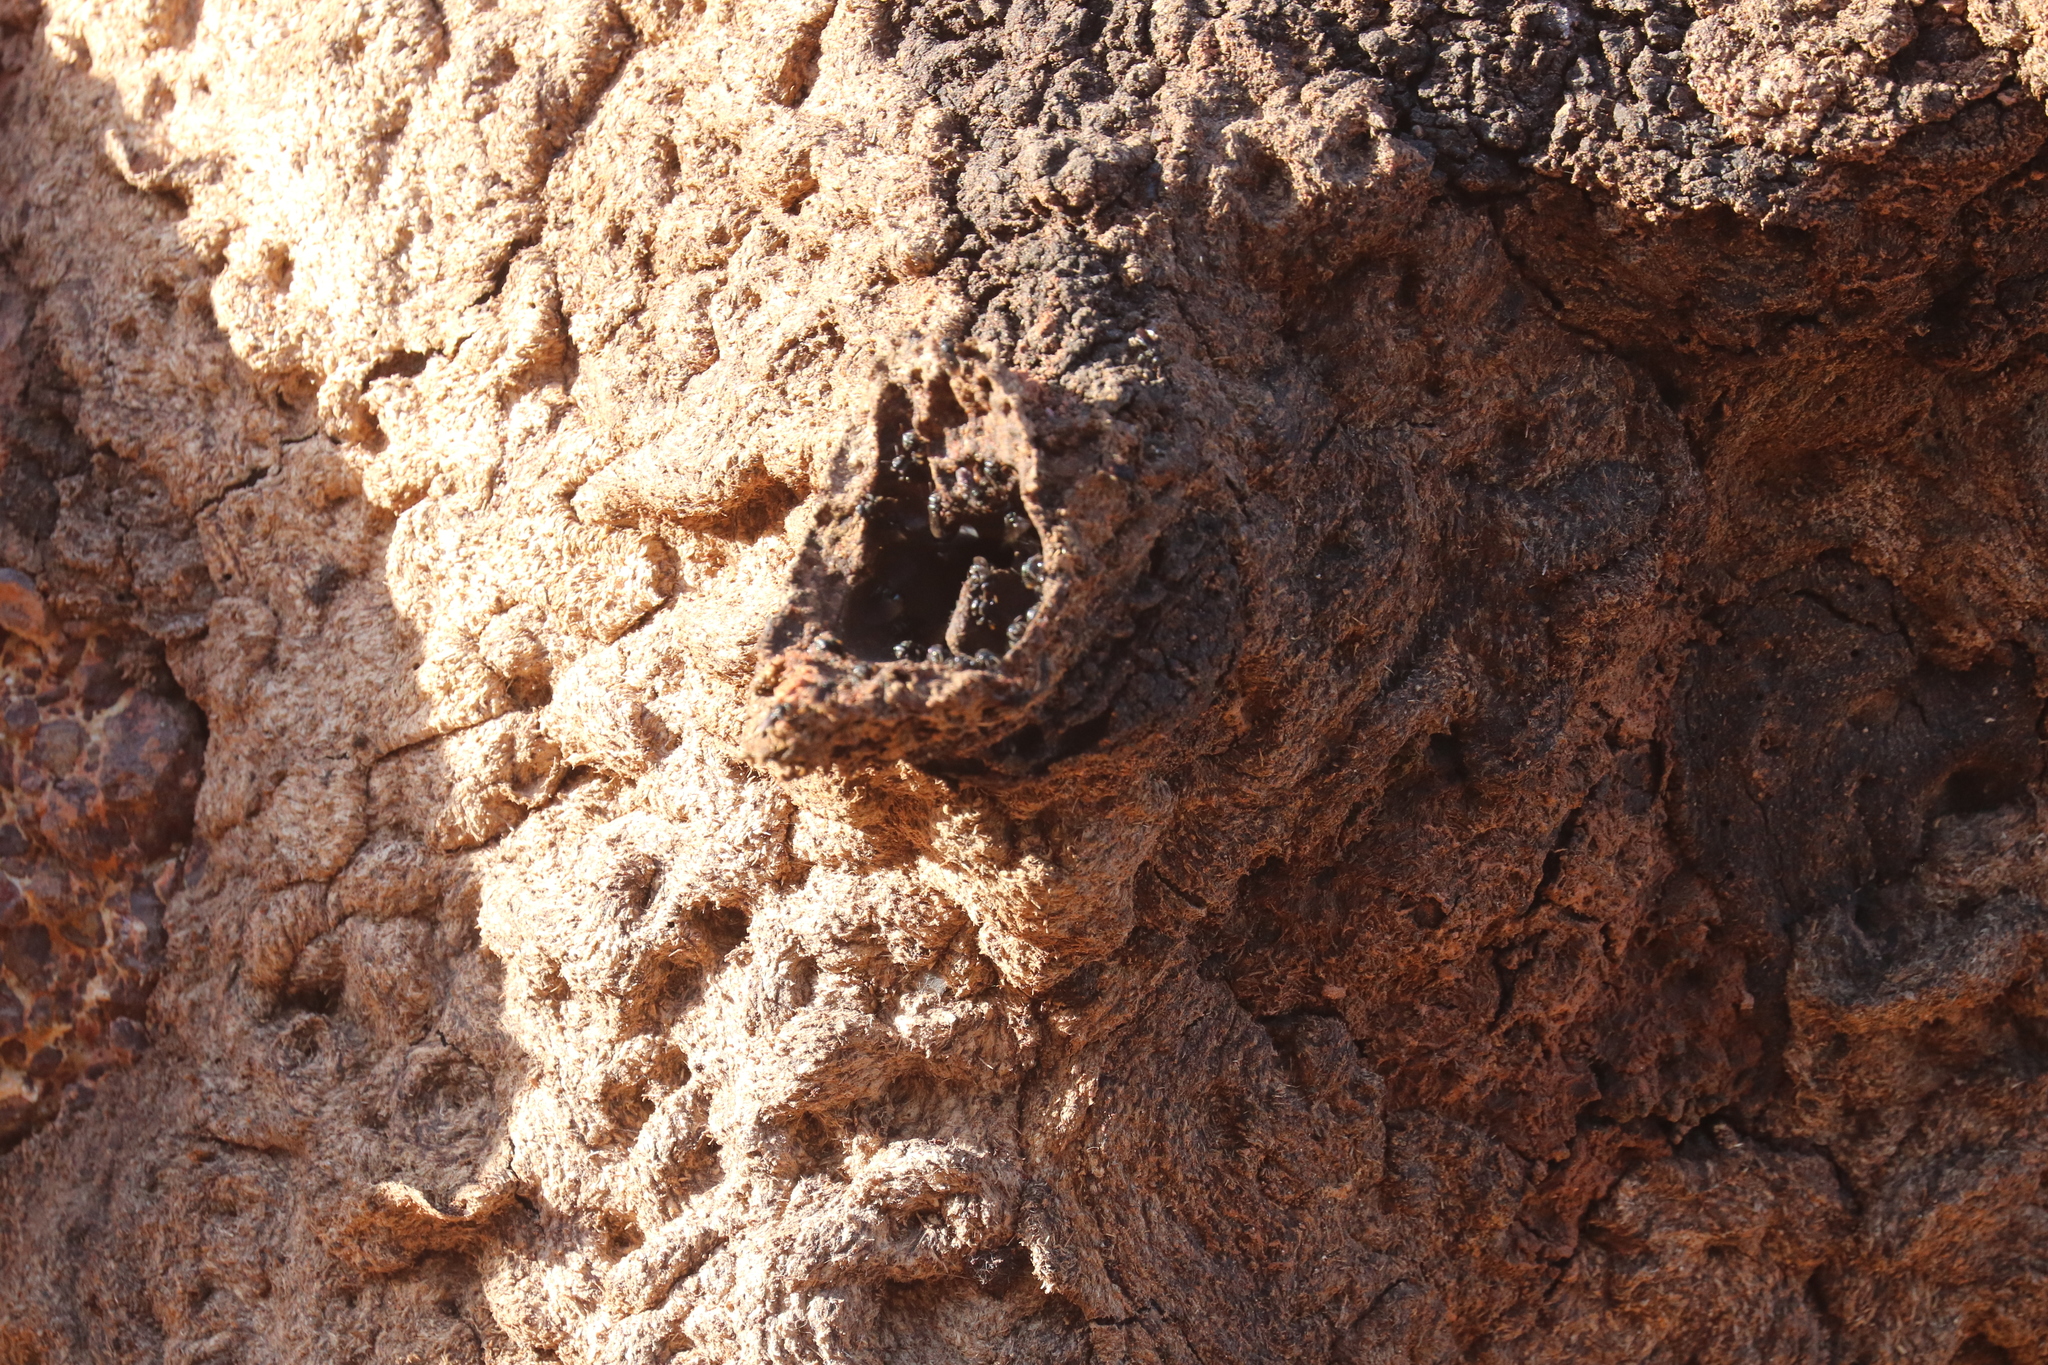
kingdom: Animalia
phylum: Arthropoda
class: Insecta
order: Hymenoptera
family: Apidae
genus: Trigona
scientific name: Trigona spinipes
